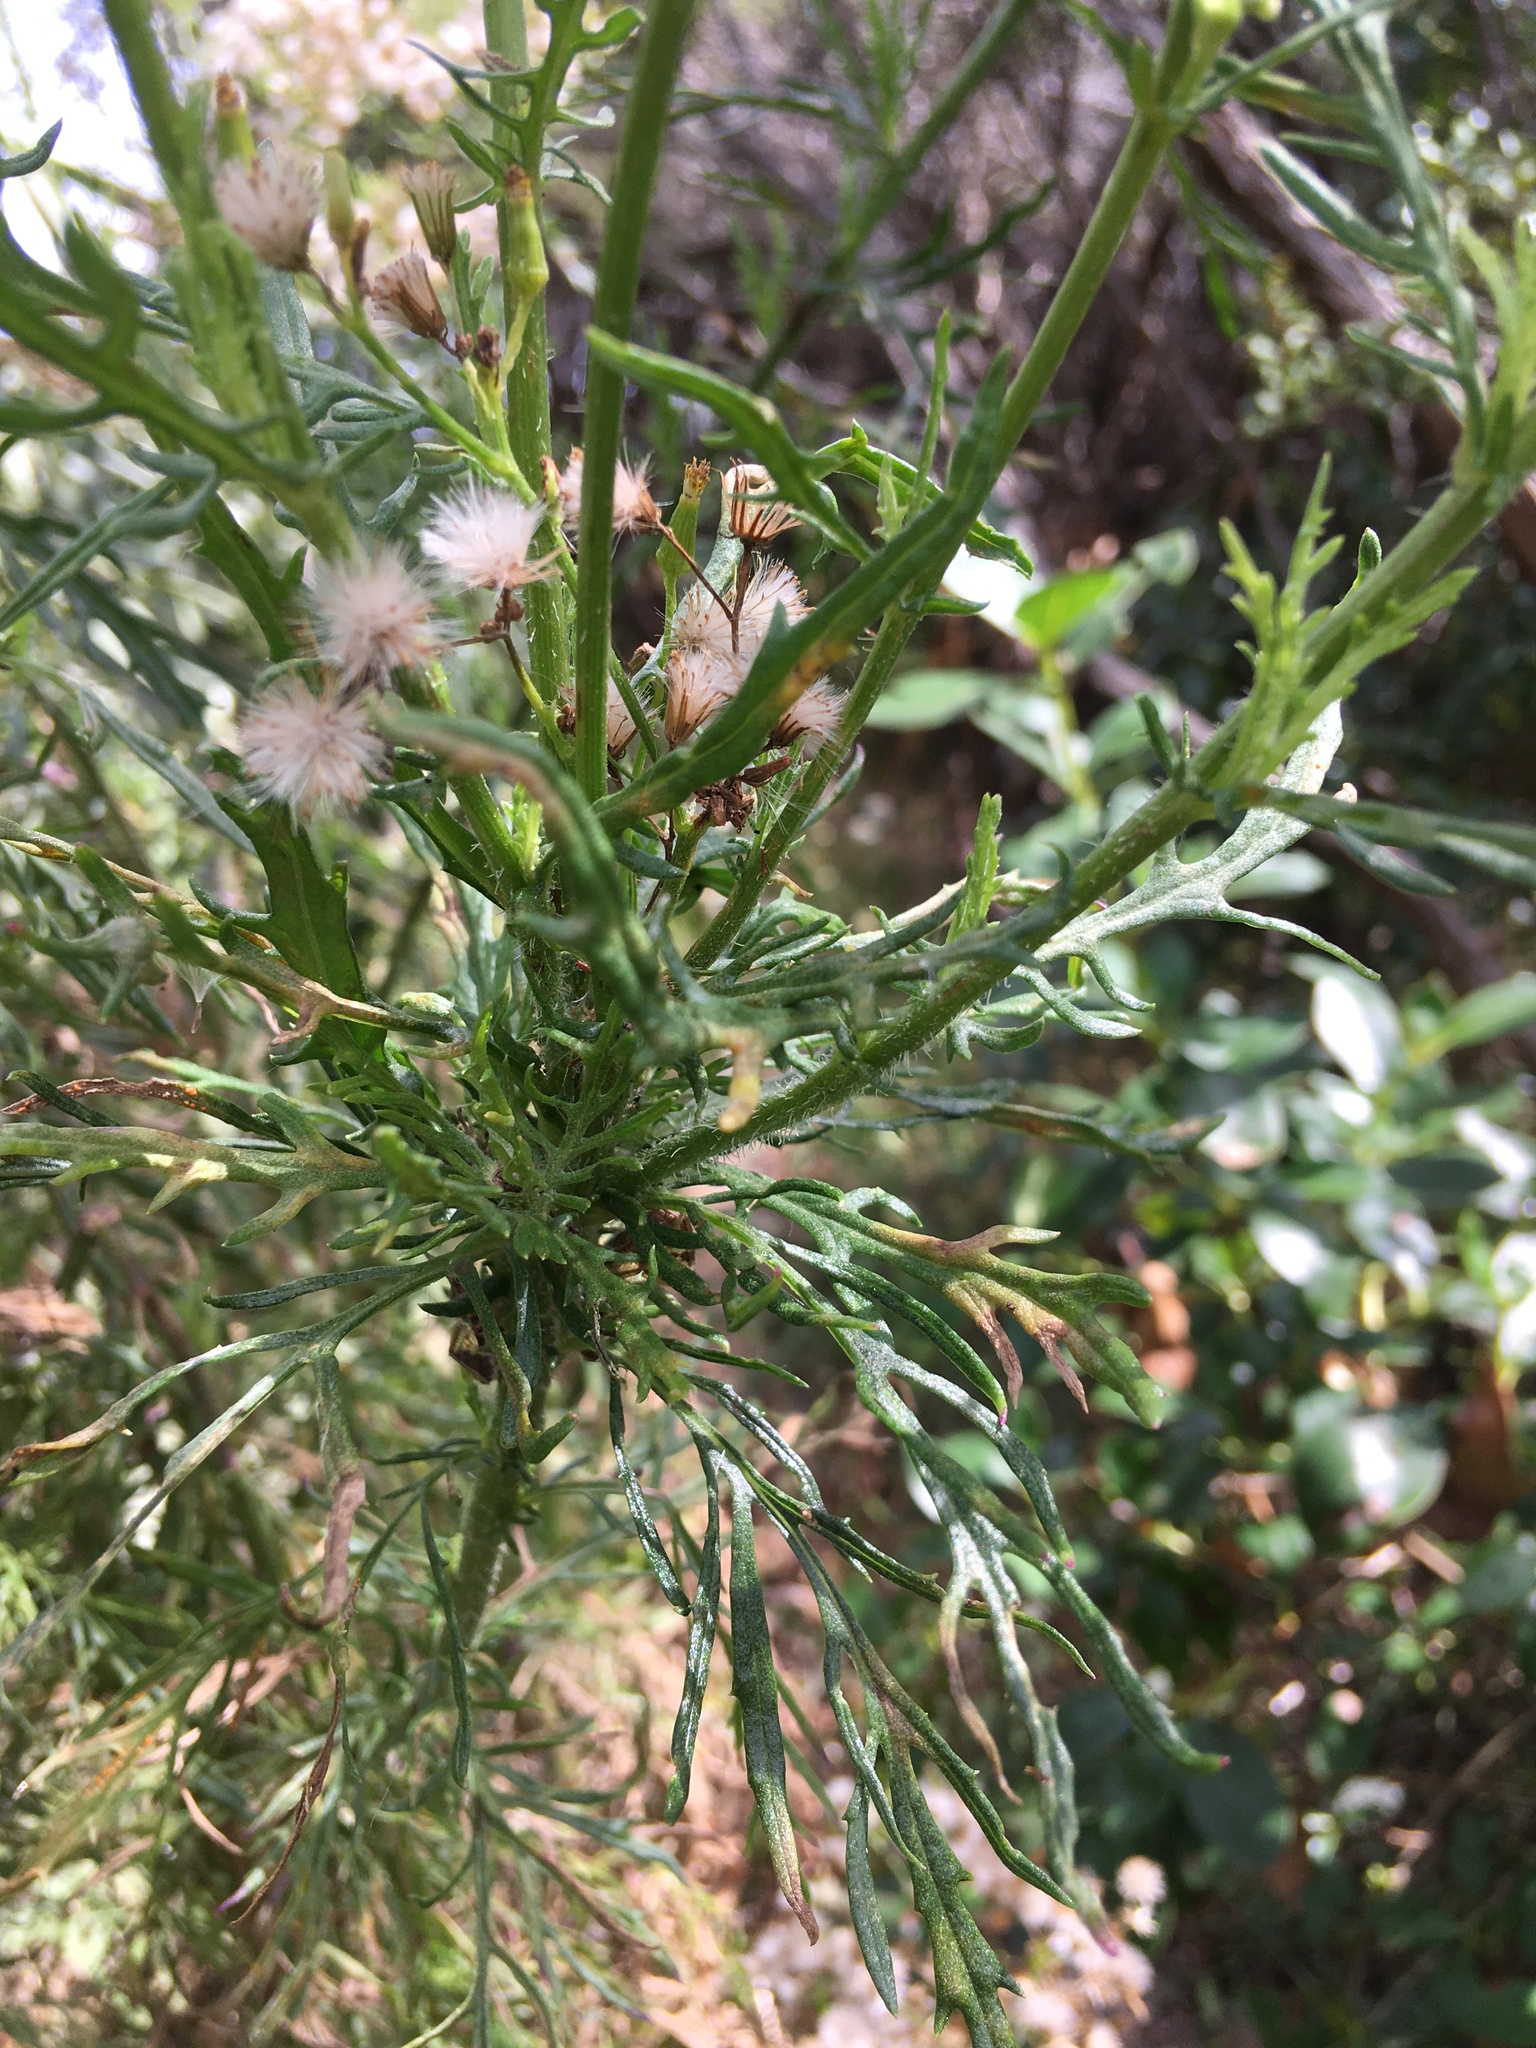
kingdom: Plantae
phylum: Tracheophyta
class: Magnoliopsida
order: Asterales
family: Asteraceae
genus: Senecio
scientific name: Senecio esleri
